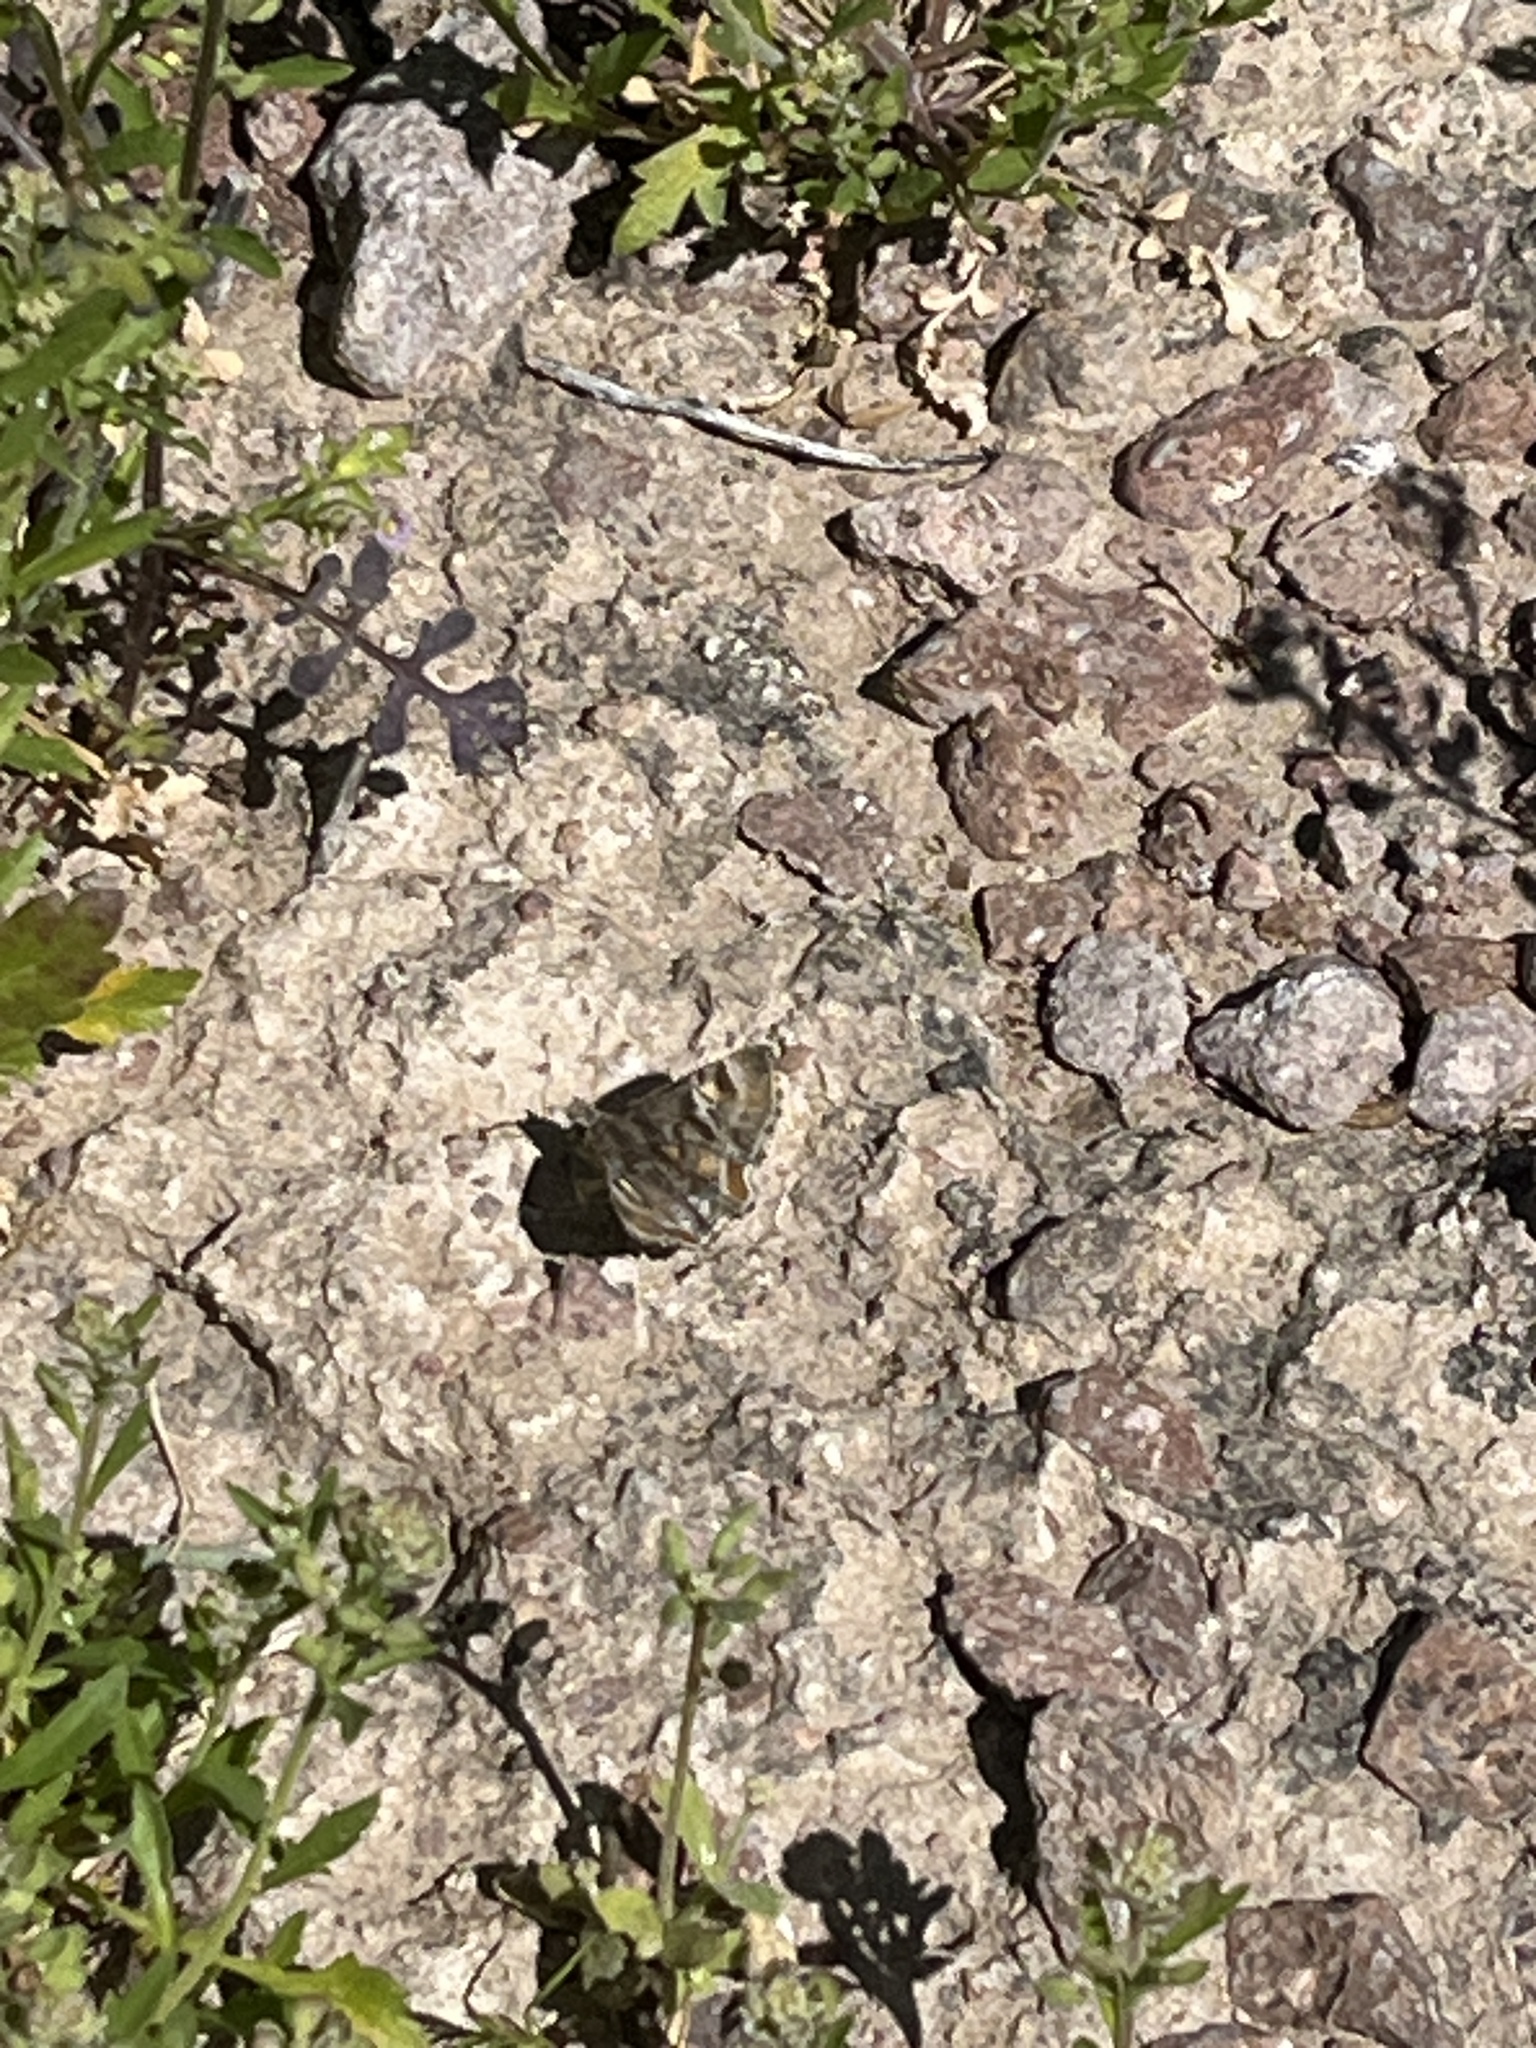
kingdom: Animalia
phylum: Arthropoda
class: Insecta
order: Lepidoptera
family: Hesperiidae
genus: Systasea
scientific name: Systasea zampa
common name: Arizona powdered-skipper
